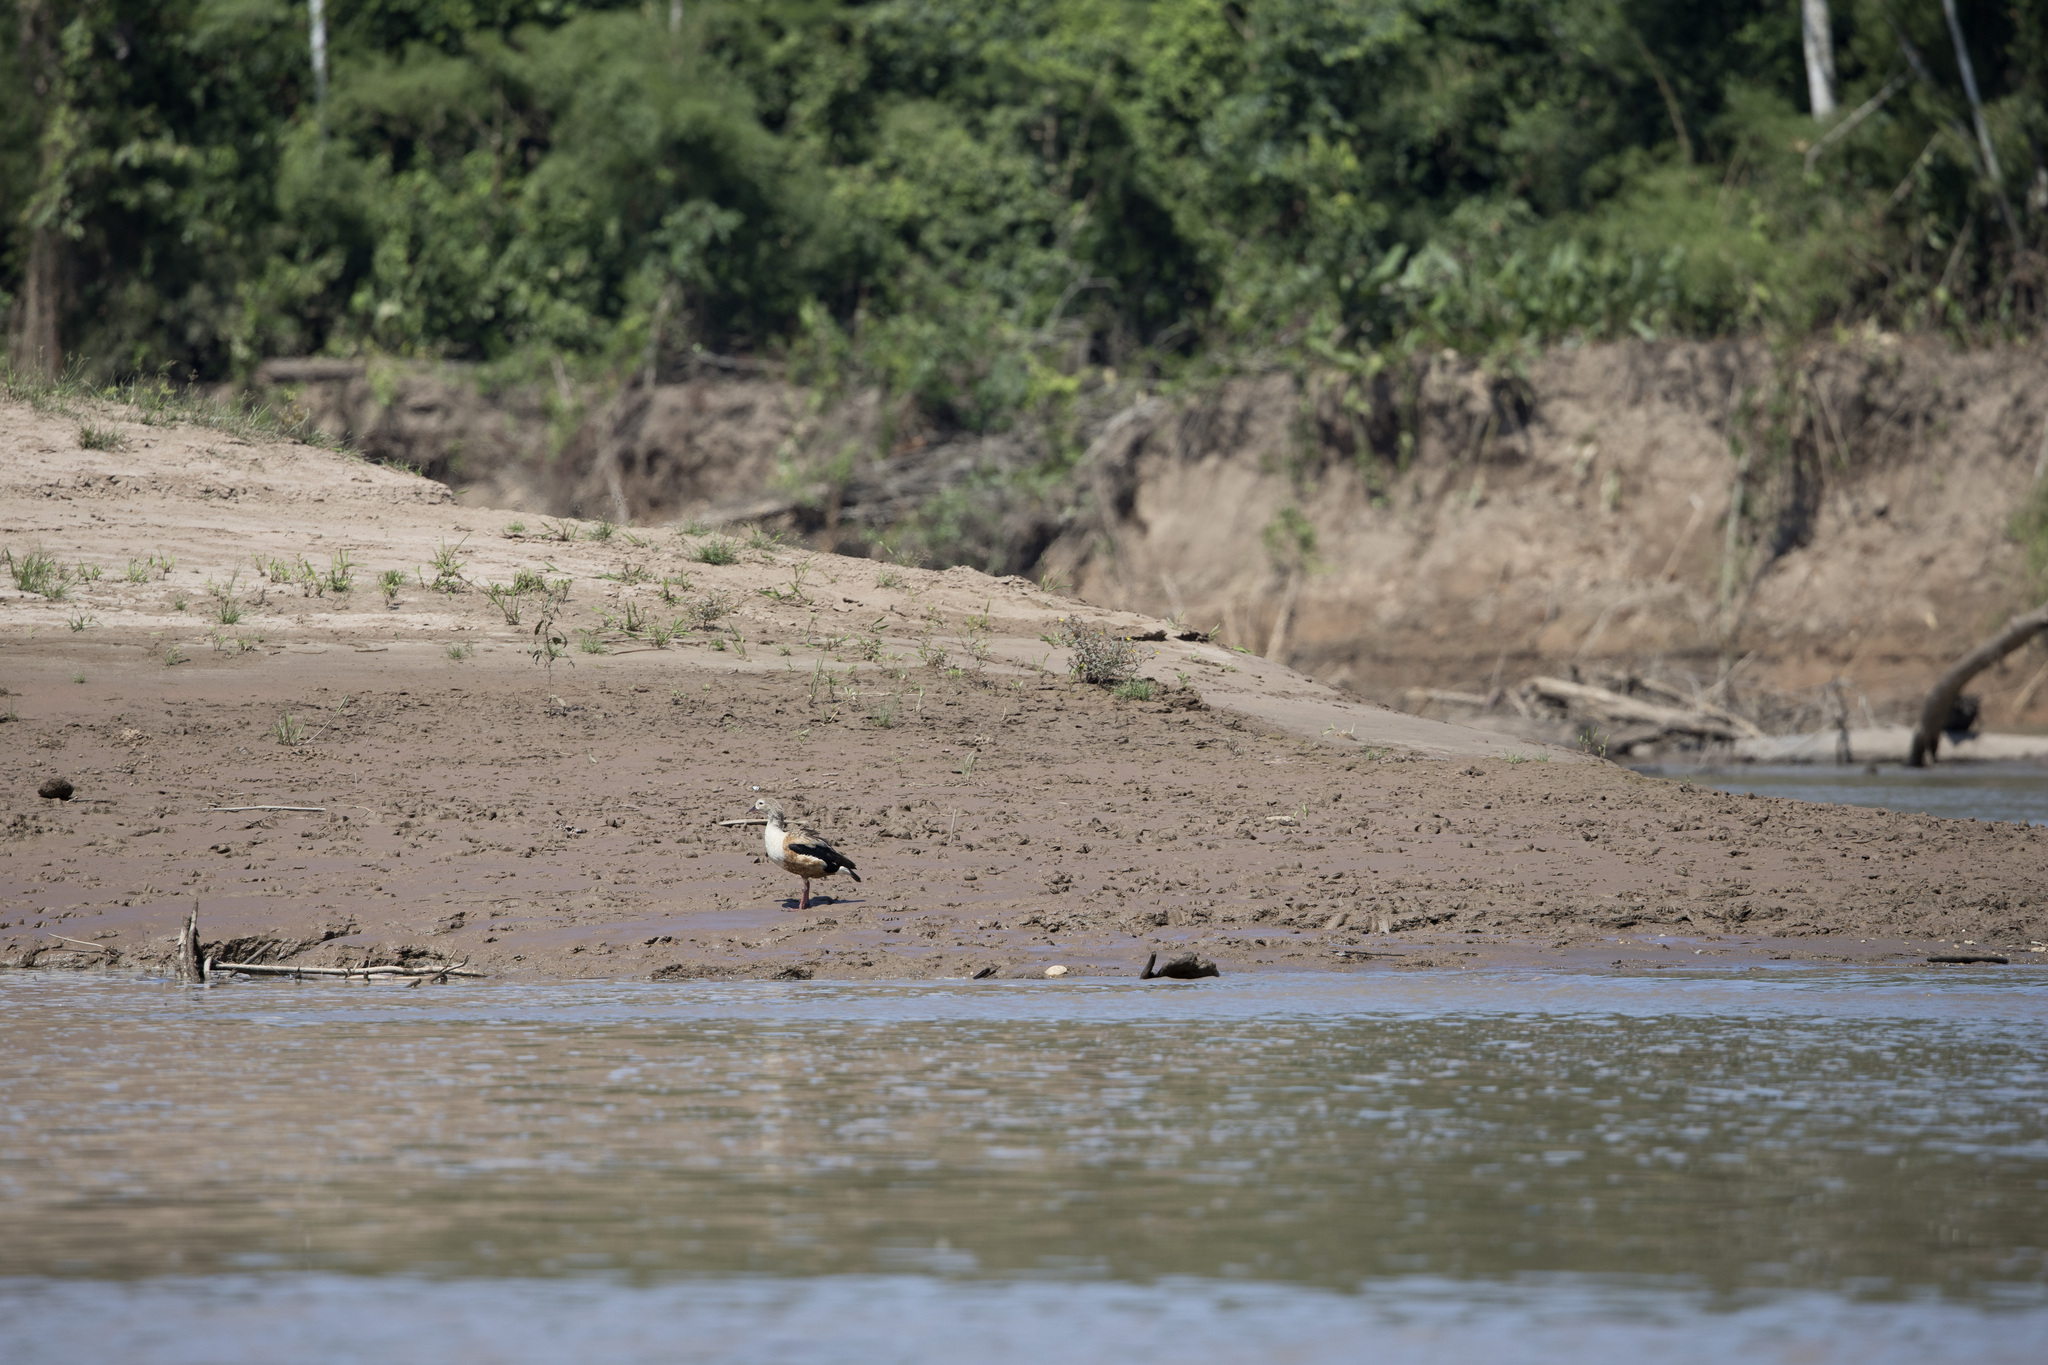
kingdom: Animalia
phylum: Chordata
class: Aves
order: Anseriformes
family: Anatidae
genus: Oressochen
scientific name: Oressochen jubatus
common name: Orinoco goose
